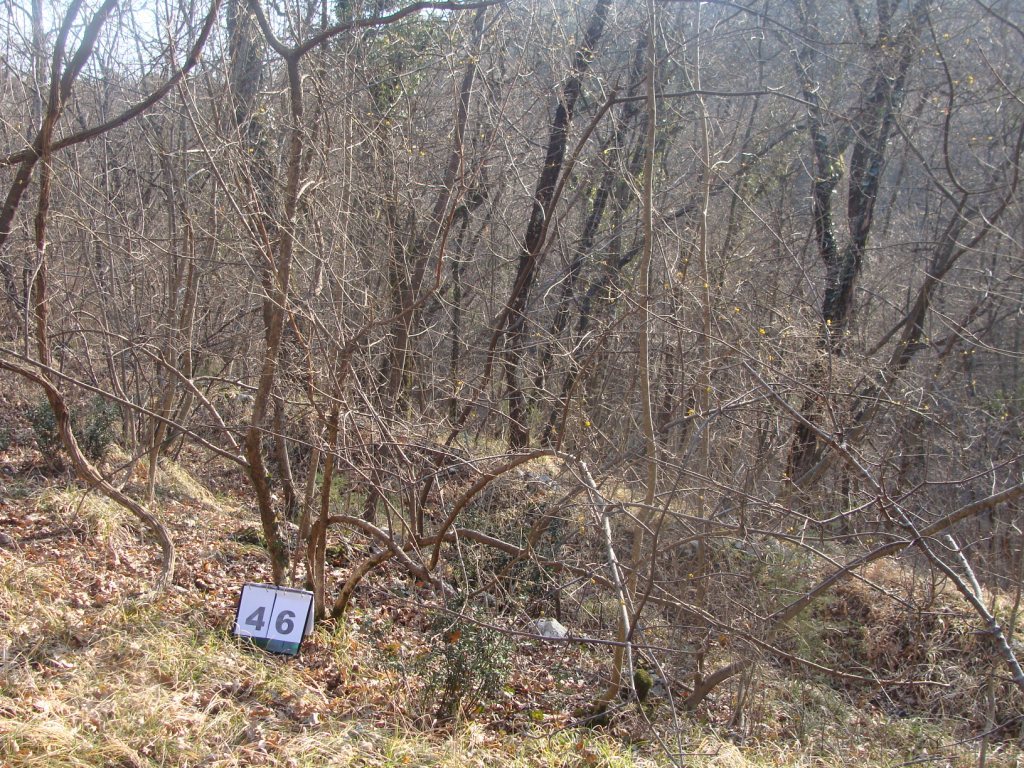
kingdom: Plantae
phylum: Tracheophyta
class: Magnoliopsida
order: Cornales
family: Cornaceae
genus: Cornus
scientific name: Cornus mas
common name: Cornelian-cherry
